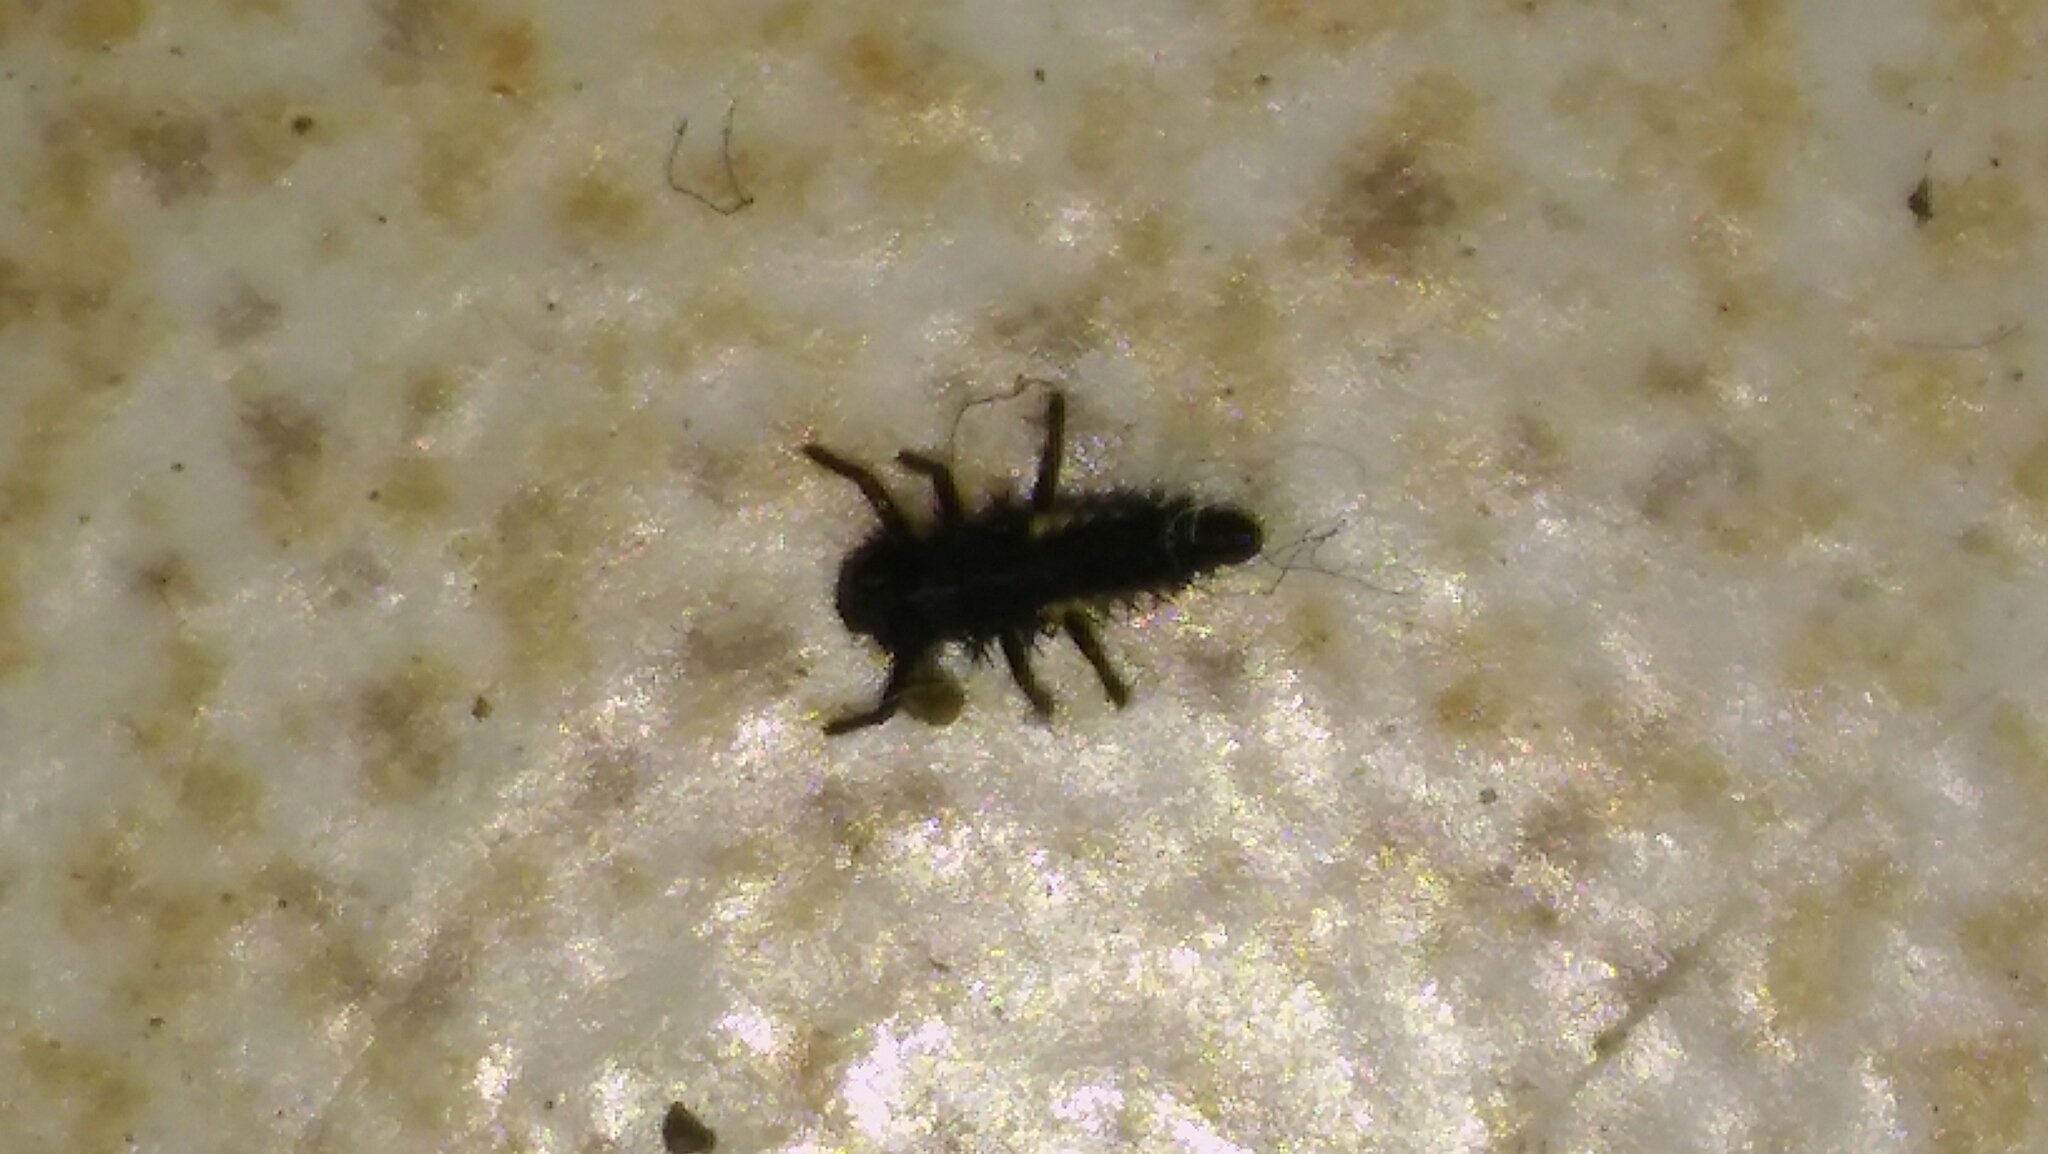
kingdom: Animalia
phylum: Arthropoda
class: Insecta
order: Coleoptera
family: Coccinellidae
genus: Harmonia
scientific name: Harmonia axyridis
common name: Harlequin ladybird
